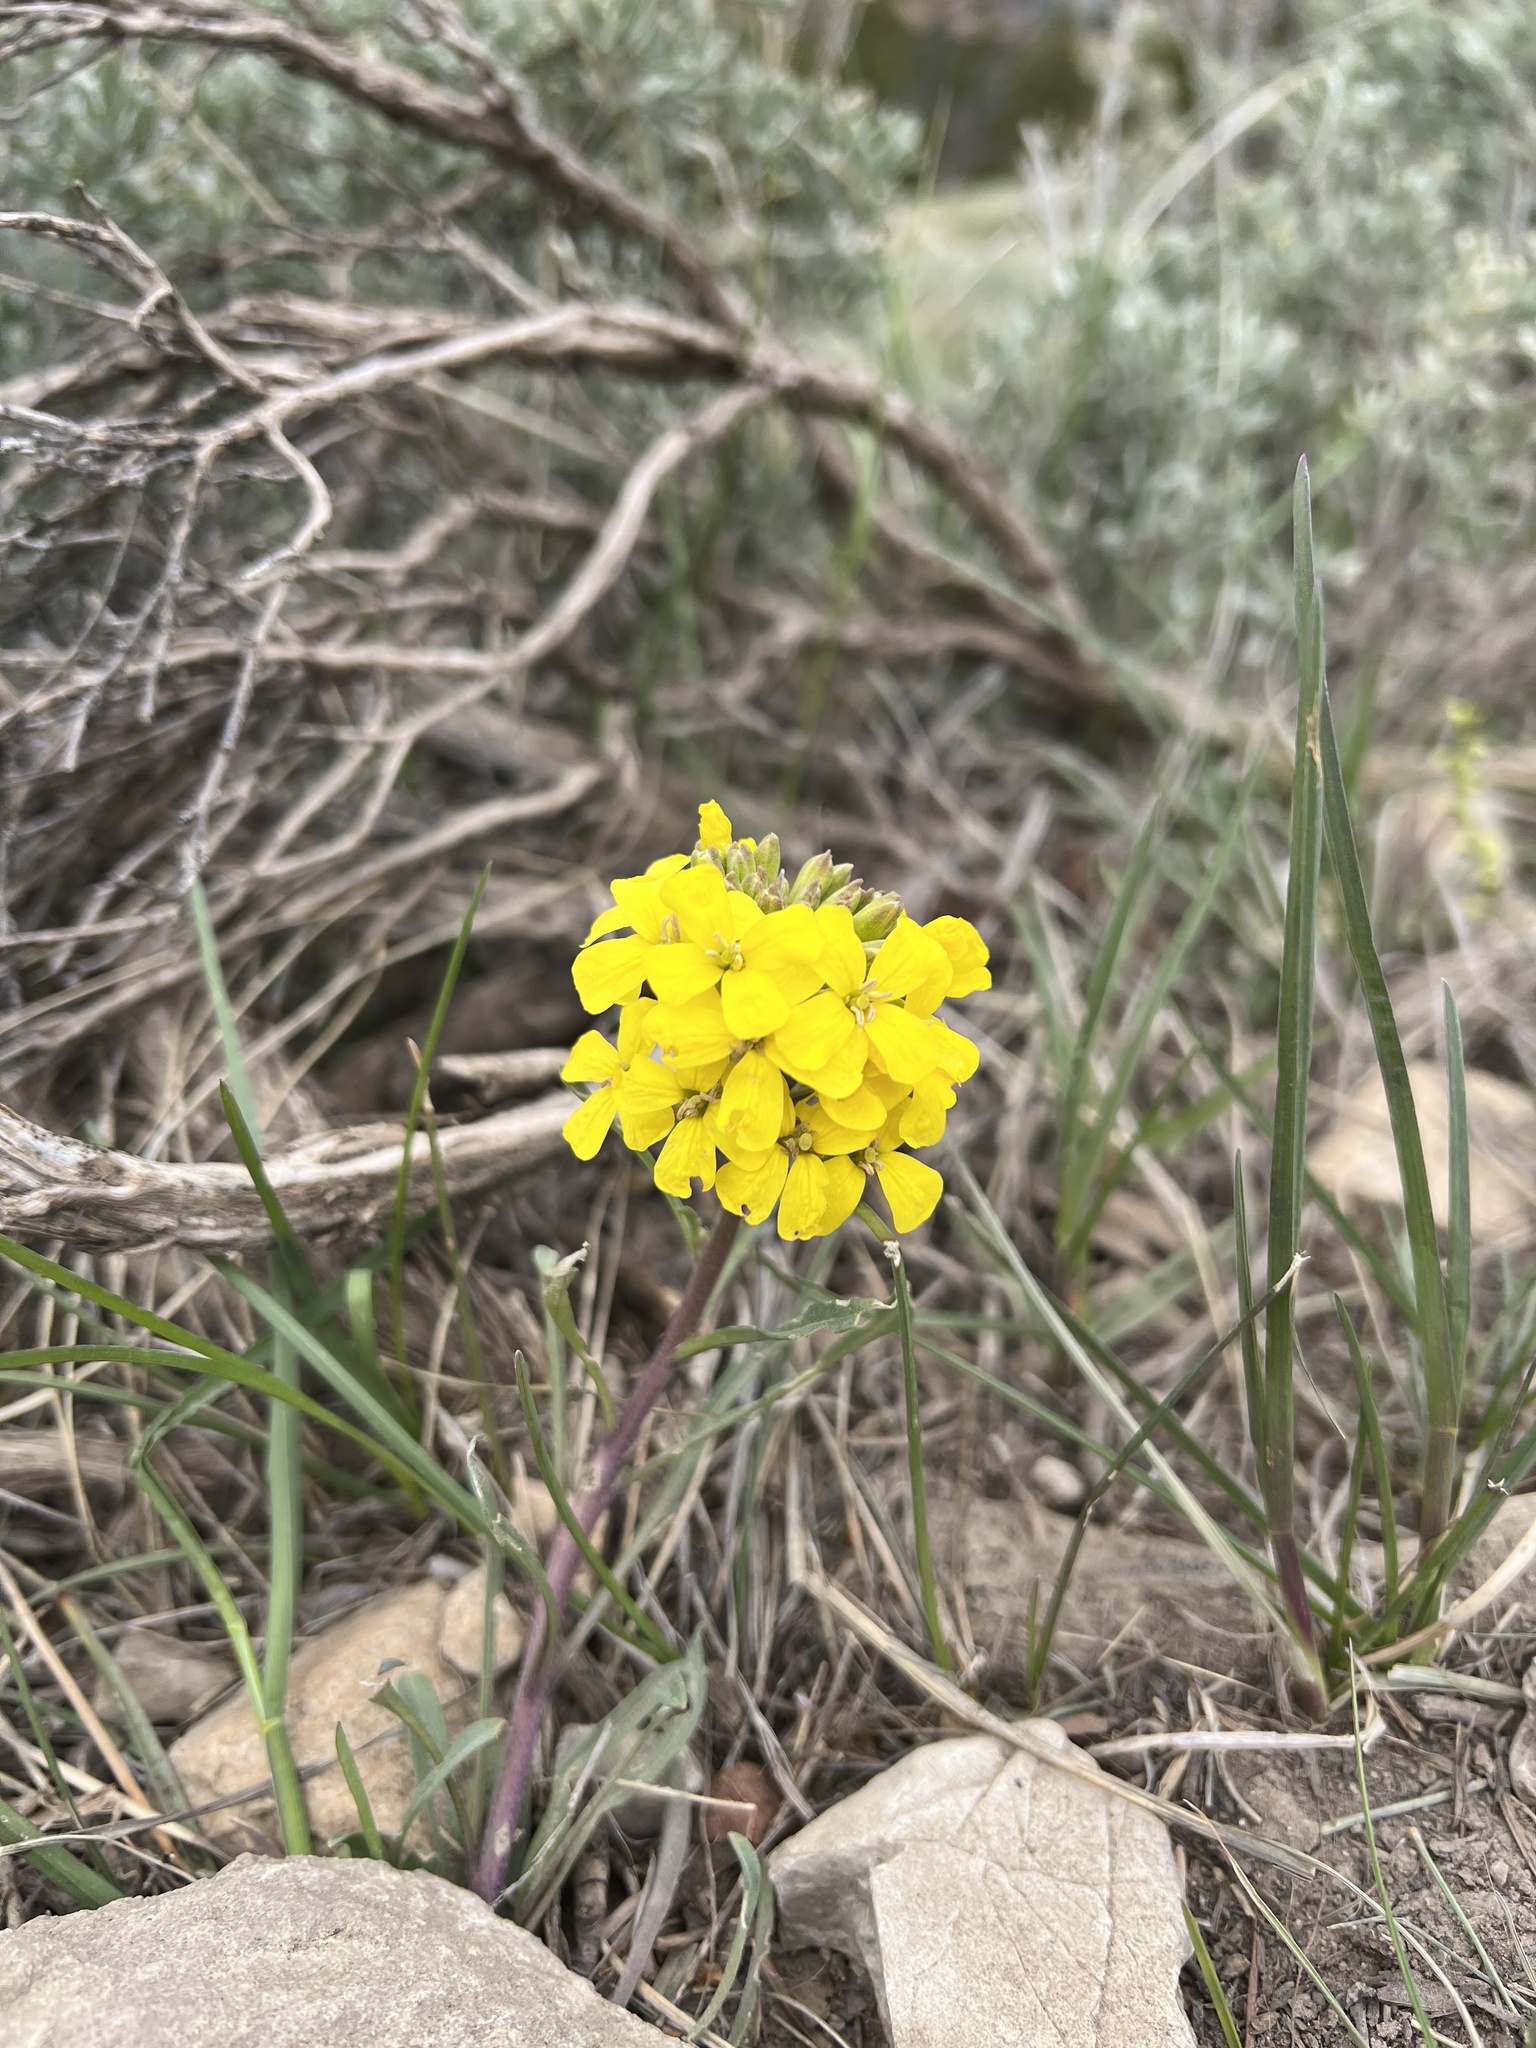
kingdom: Plantae
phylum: Tracheophyta
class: Magnoliopsida
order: Brassicales
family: Brassicaceae
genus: Erysimum
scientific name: Erysimum capitatum
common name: Western wallflower
